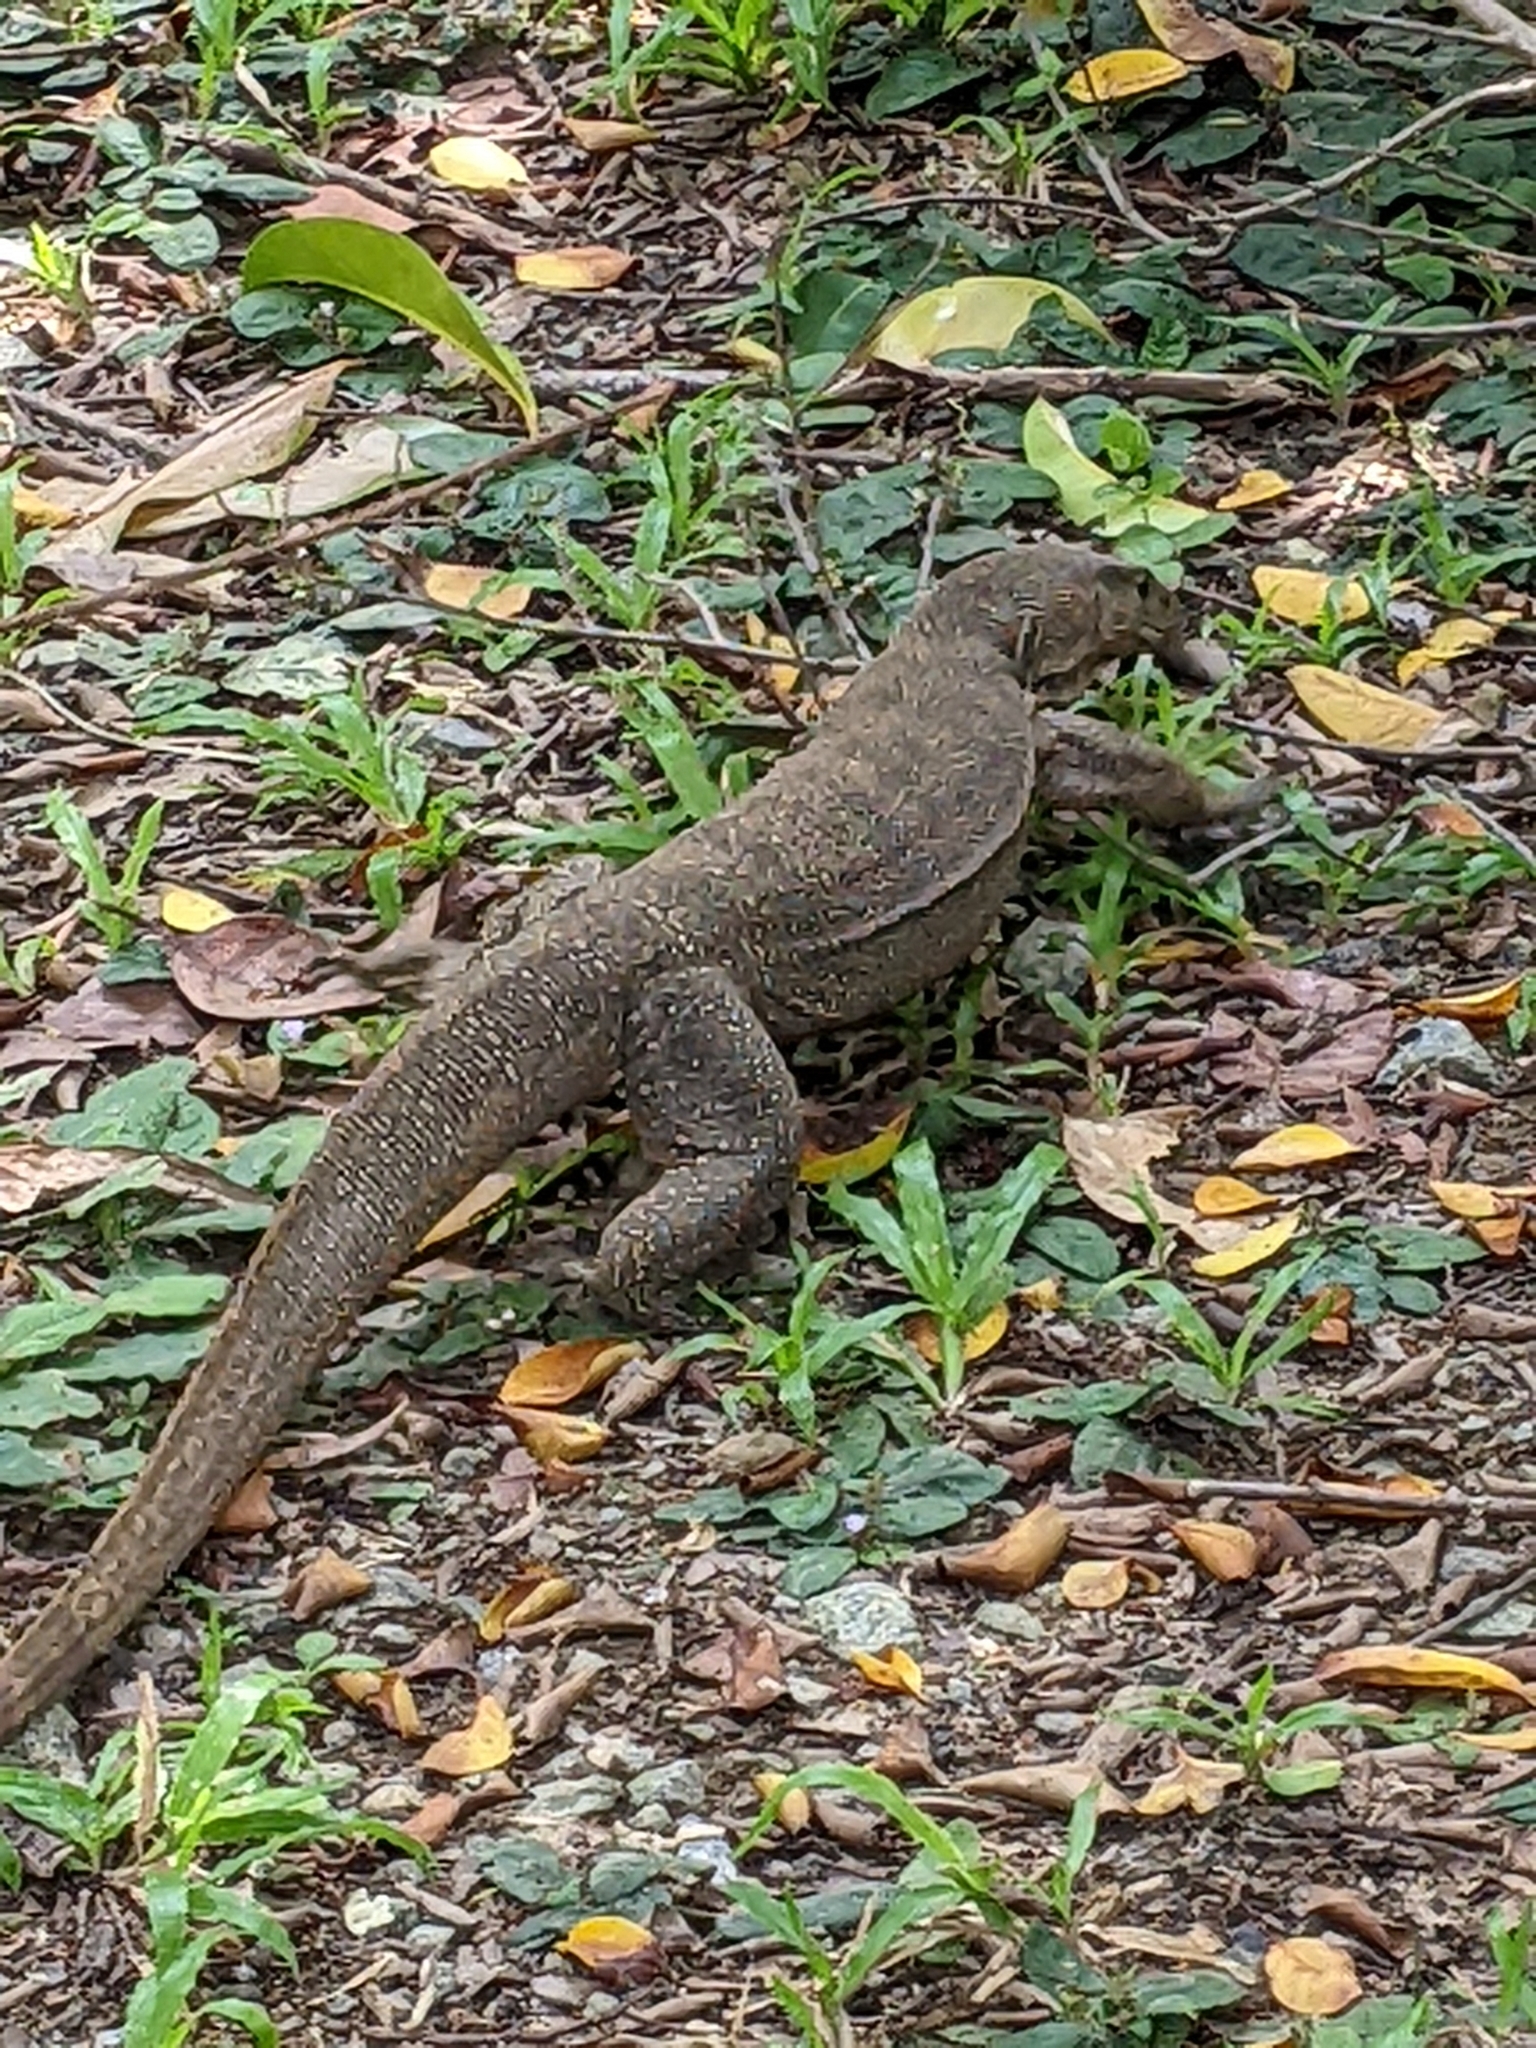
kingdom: Animalia
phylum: Chordata
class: Squamata
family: Varanidae
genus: Varanus
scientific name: Varanus nebulosus
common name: Clouded monitor
